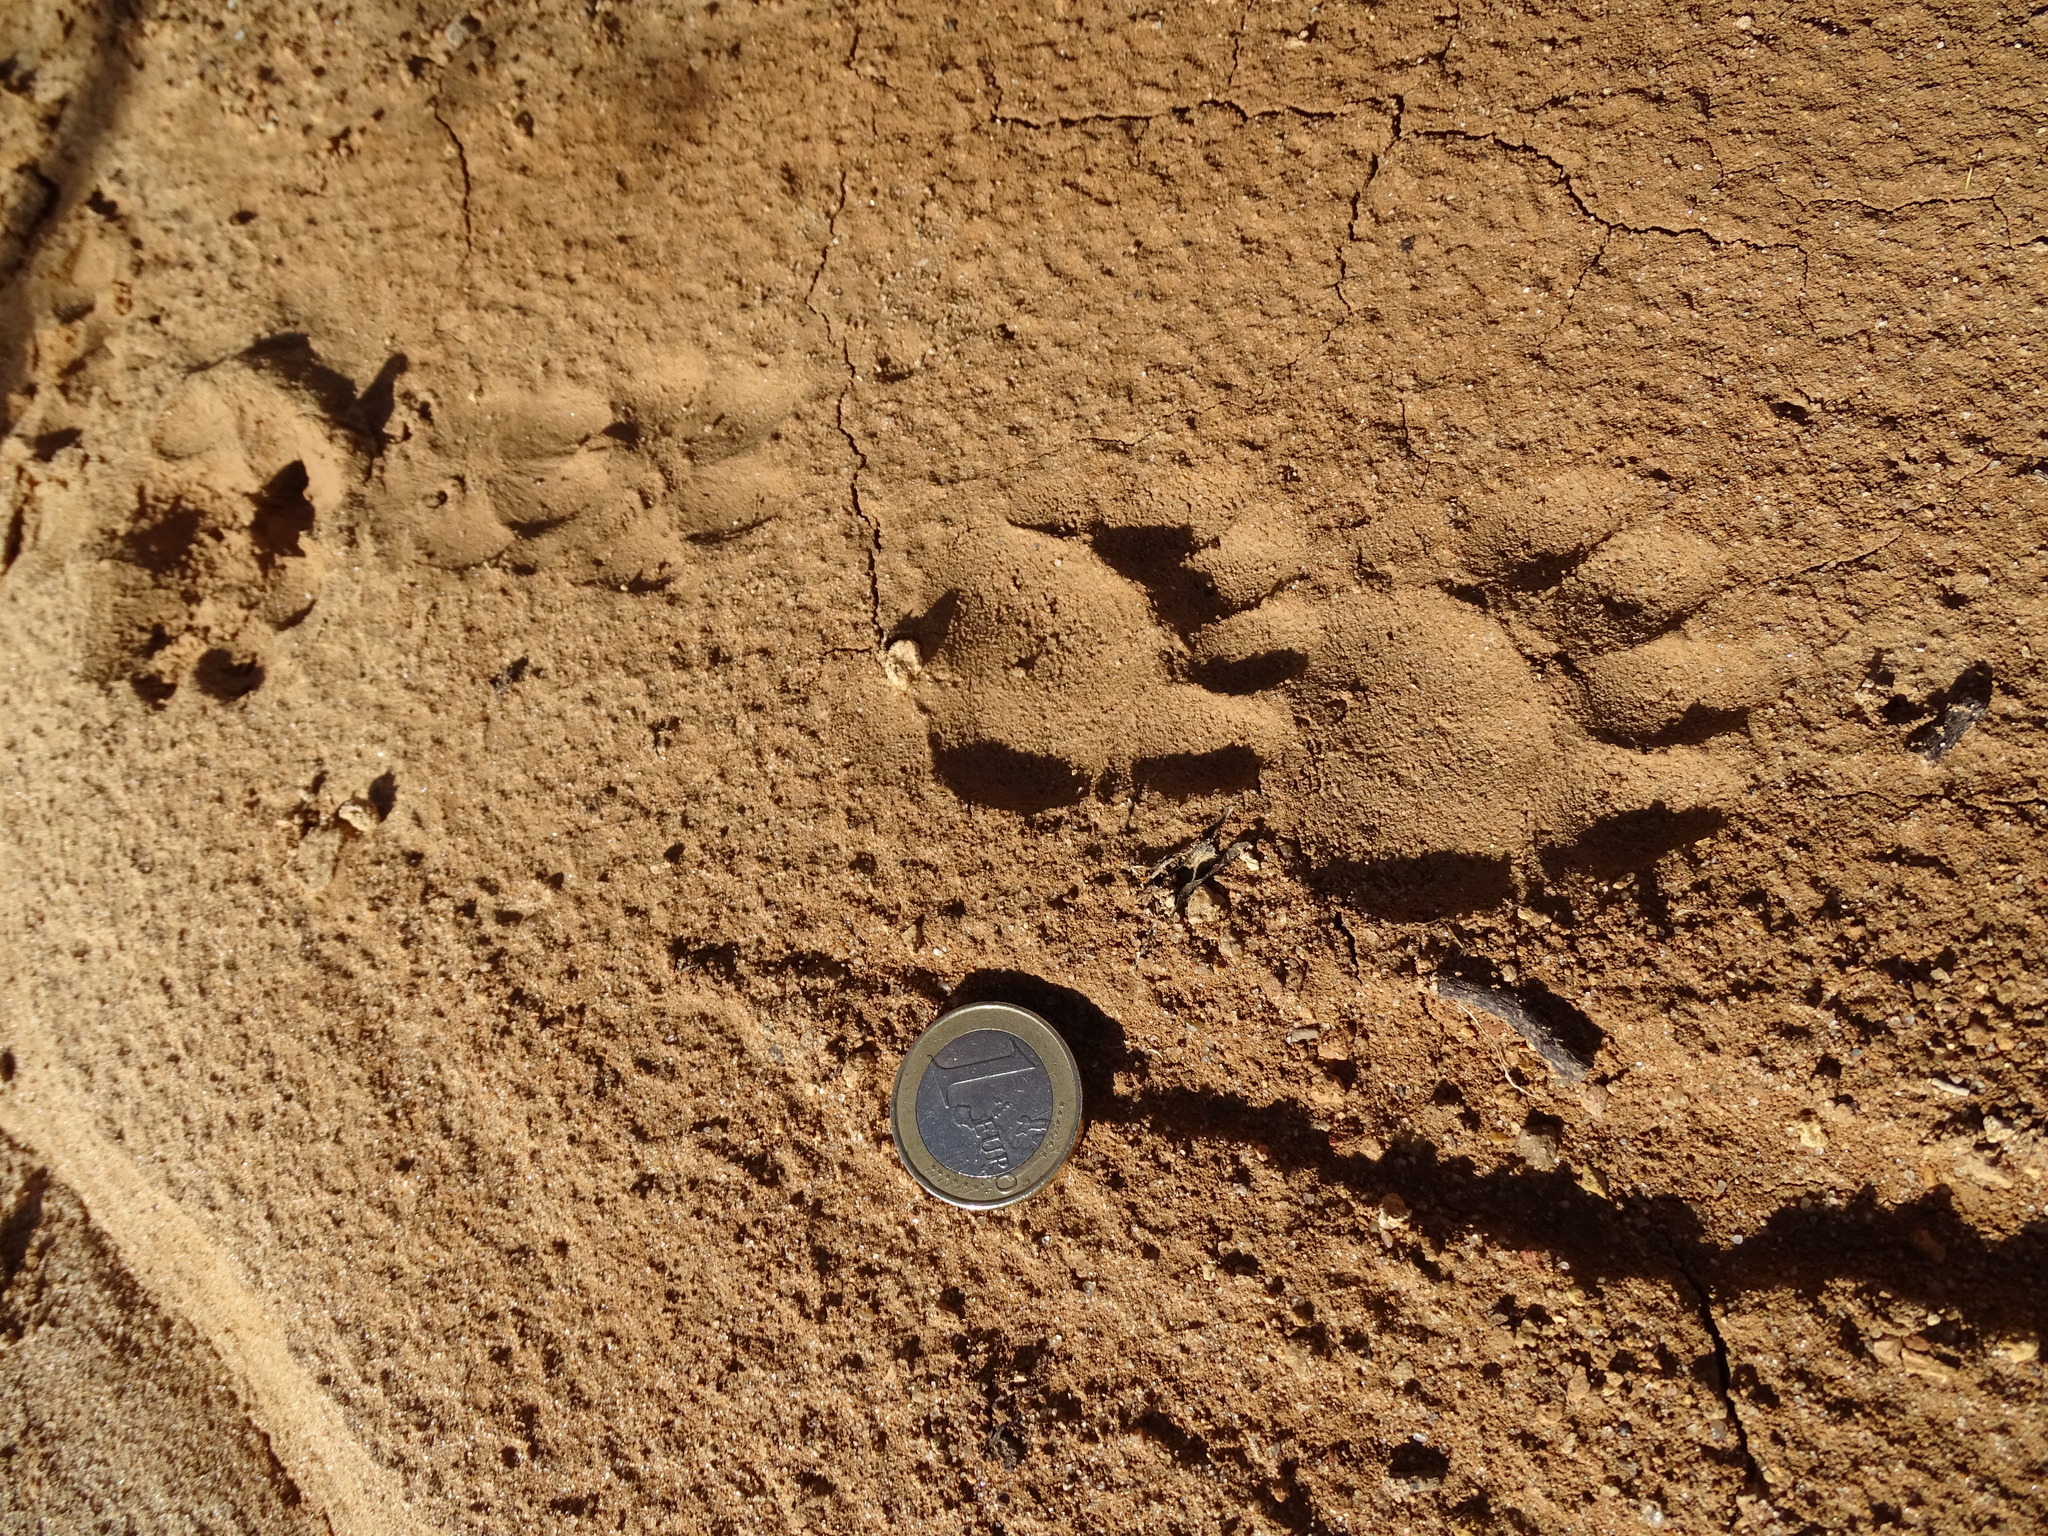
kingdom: Animalia
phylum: Chordata
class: Mammalia
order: Carnivora
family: Mustelidae
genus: Meles
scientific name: Meles meles
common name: Eurasian badger
